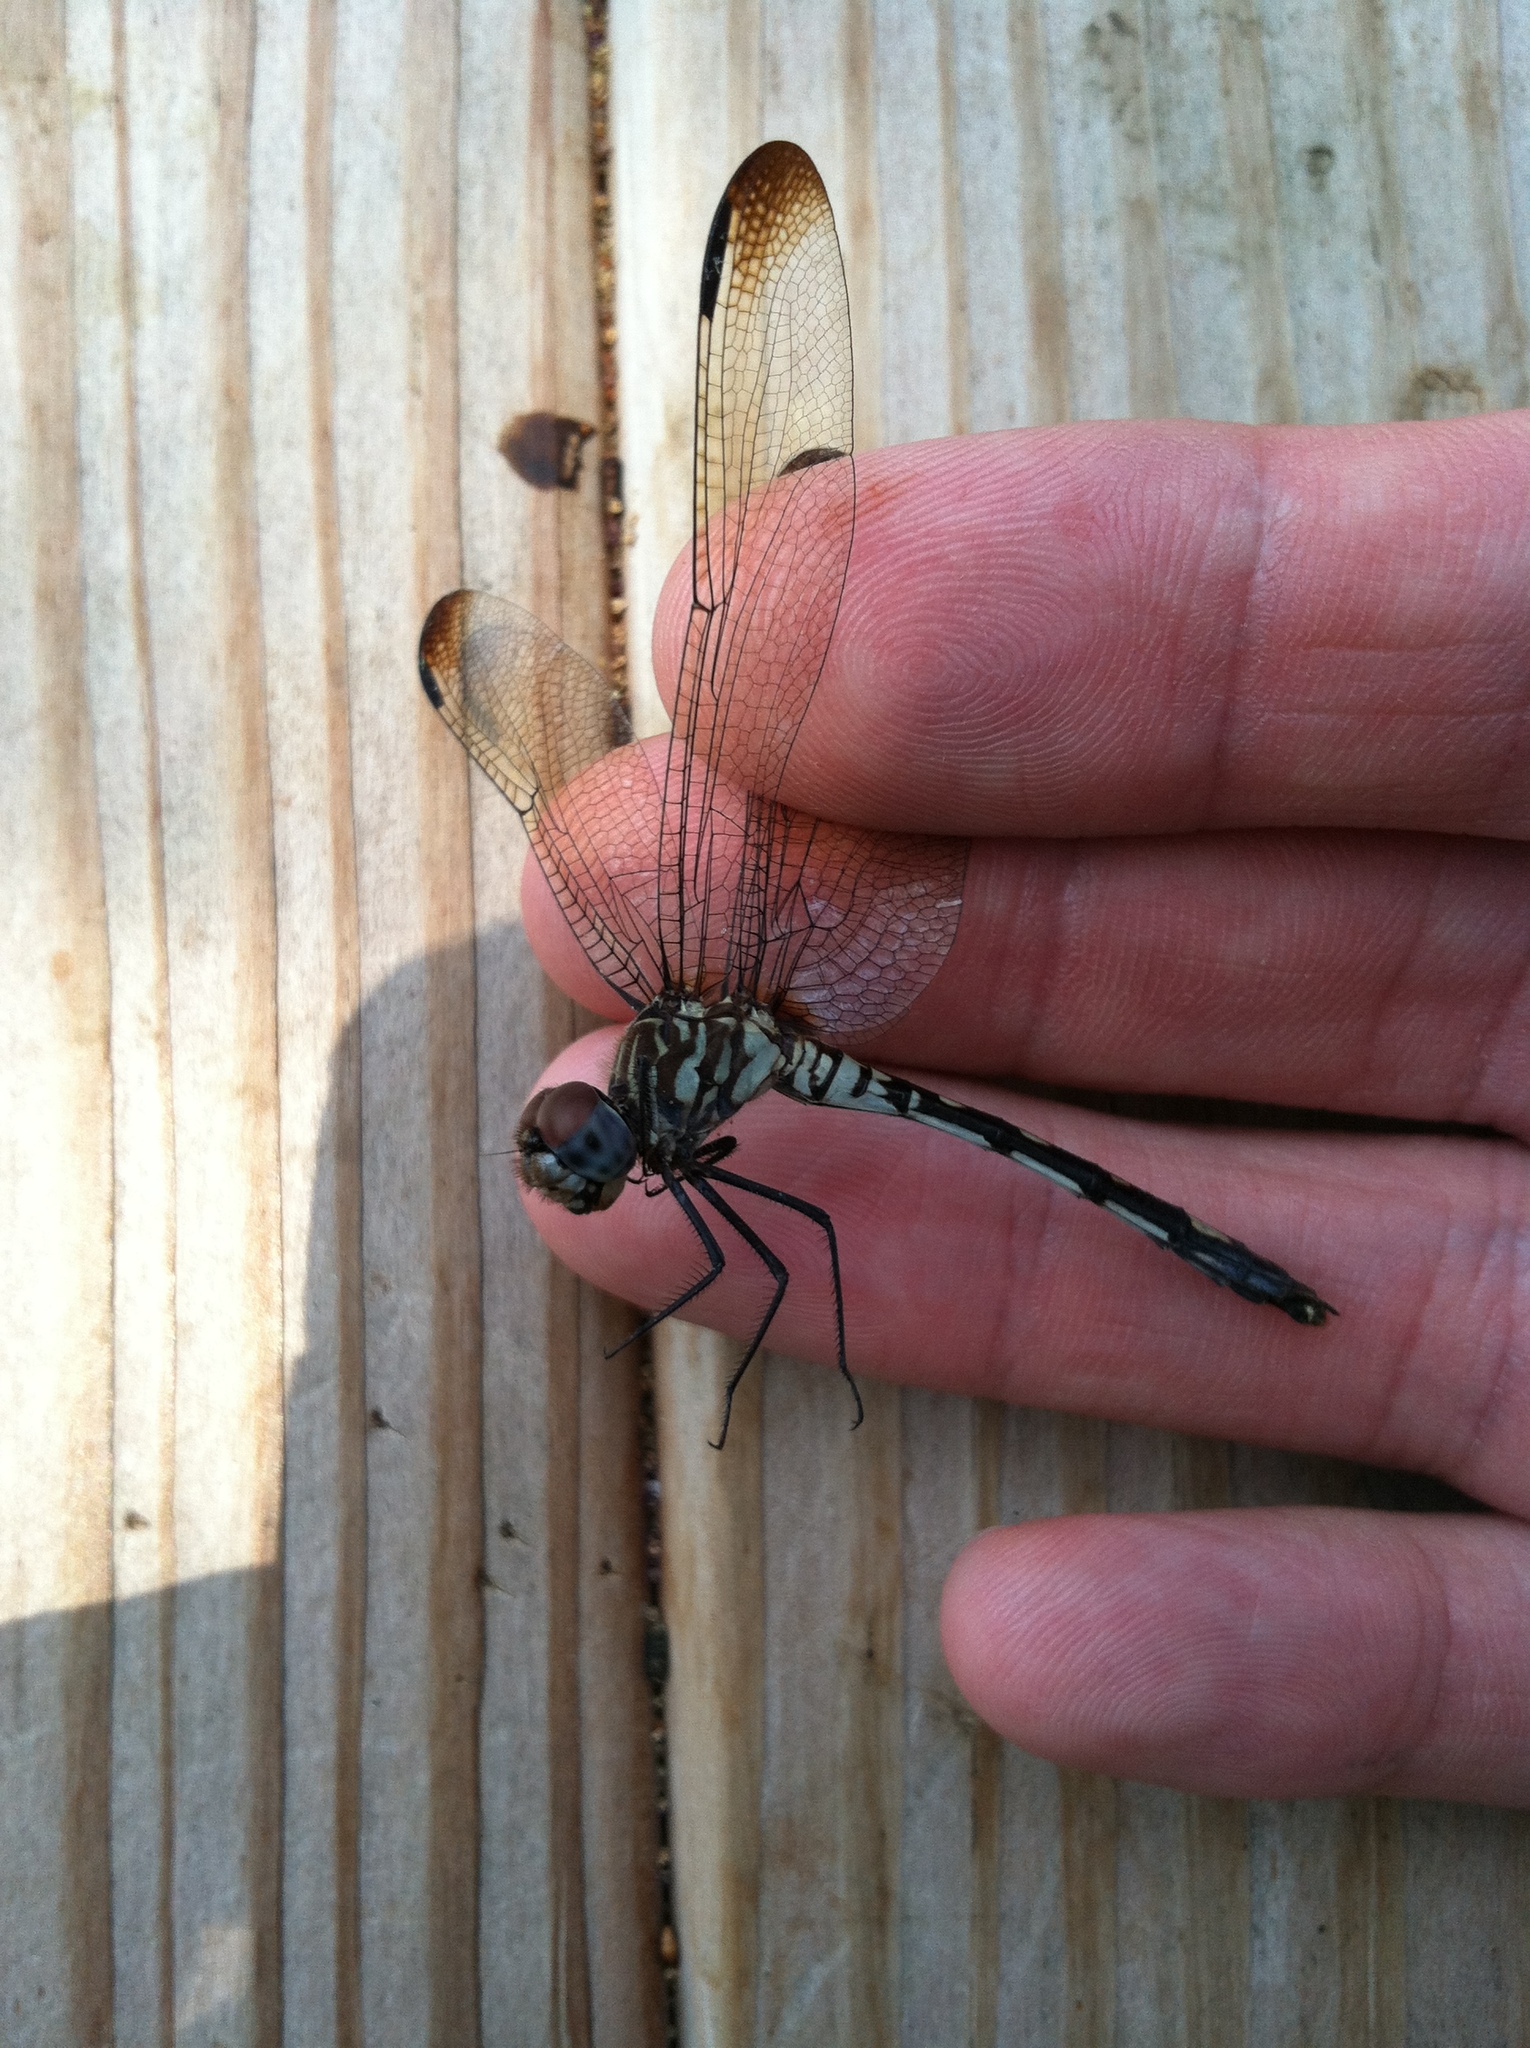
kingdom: Animalia
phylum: Arthropoda
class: Insecta
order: Odonata
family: Libellulidae
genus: Dythemis
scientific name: Dythemis velox
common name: Swift setwing
